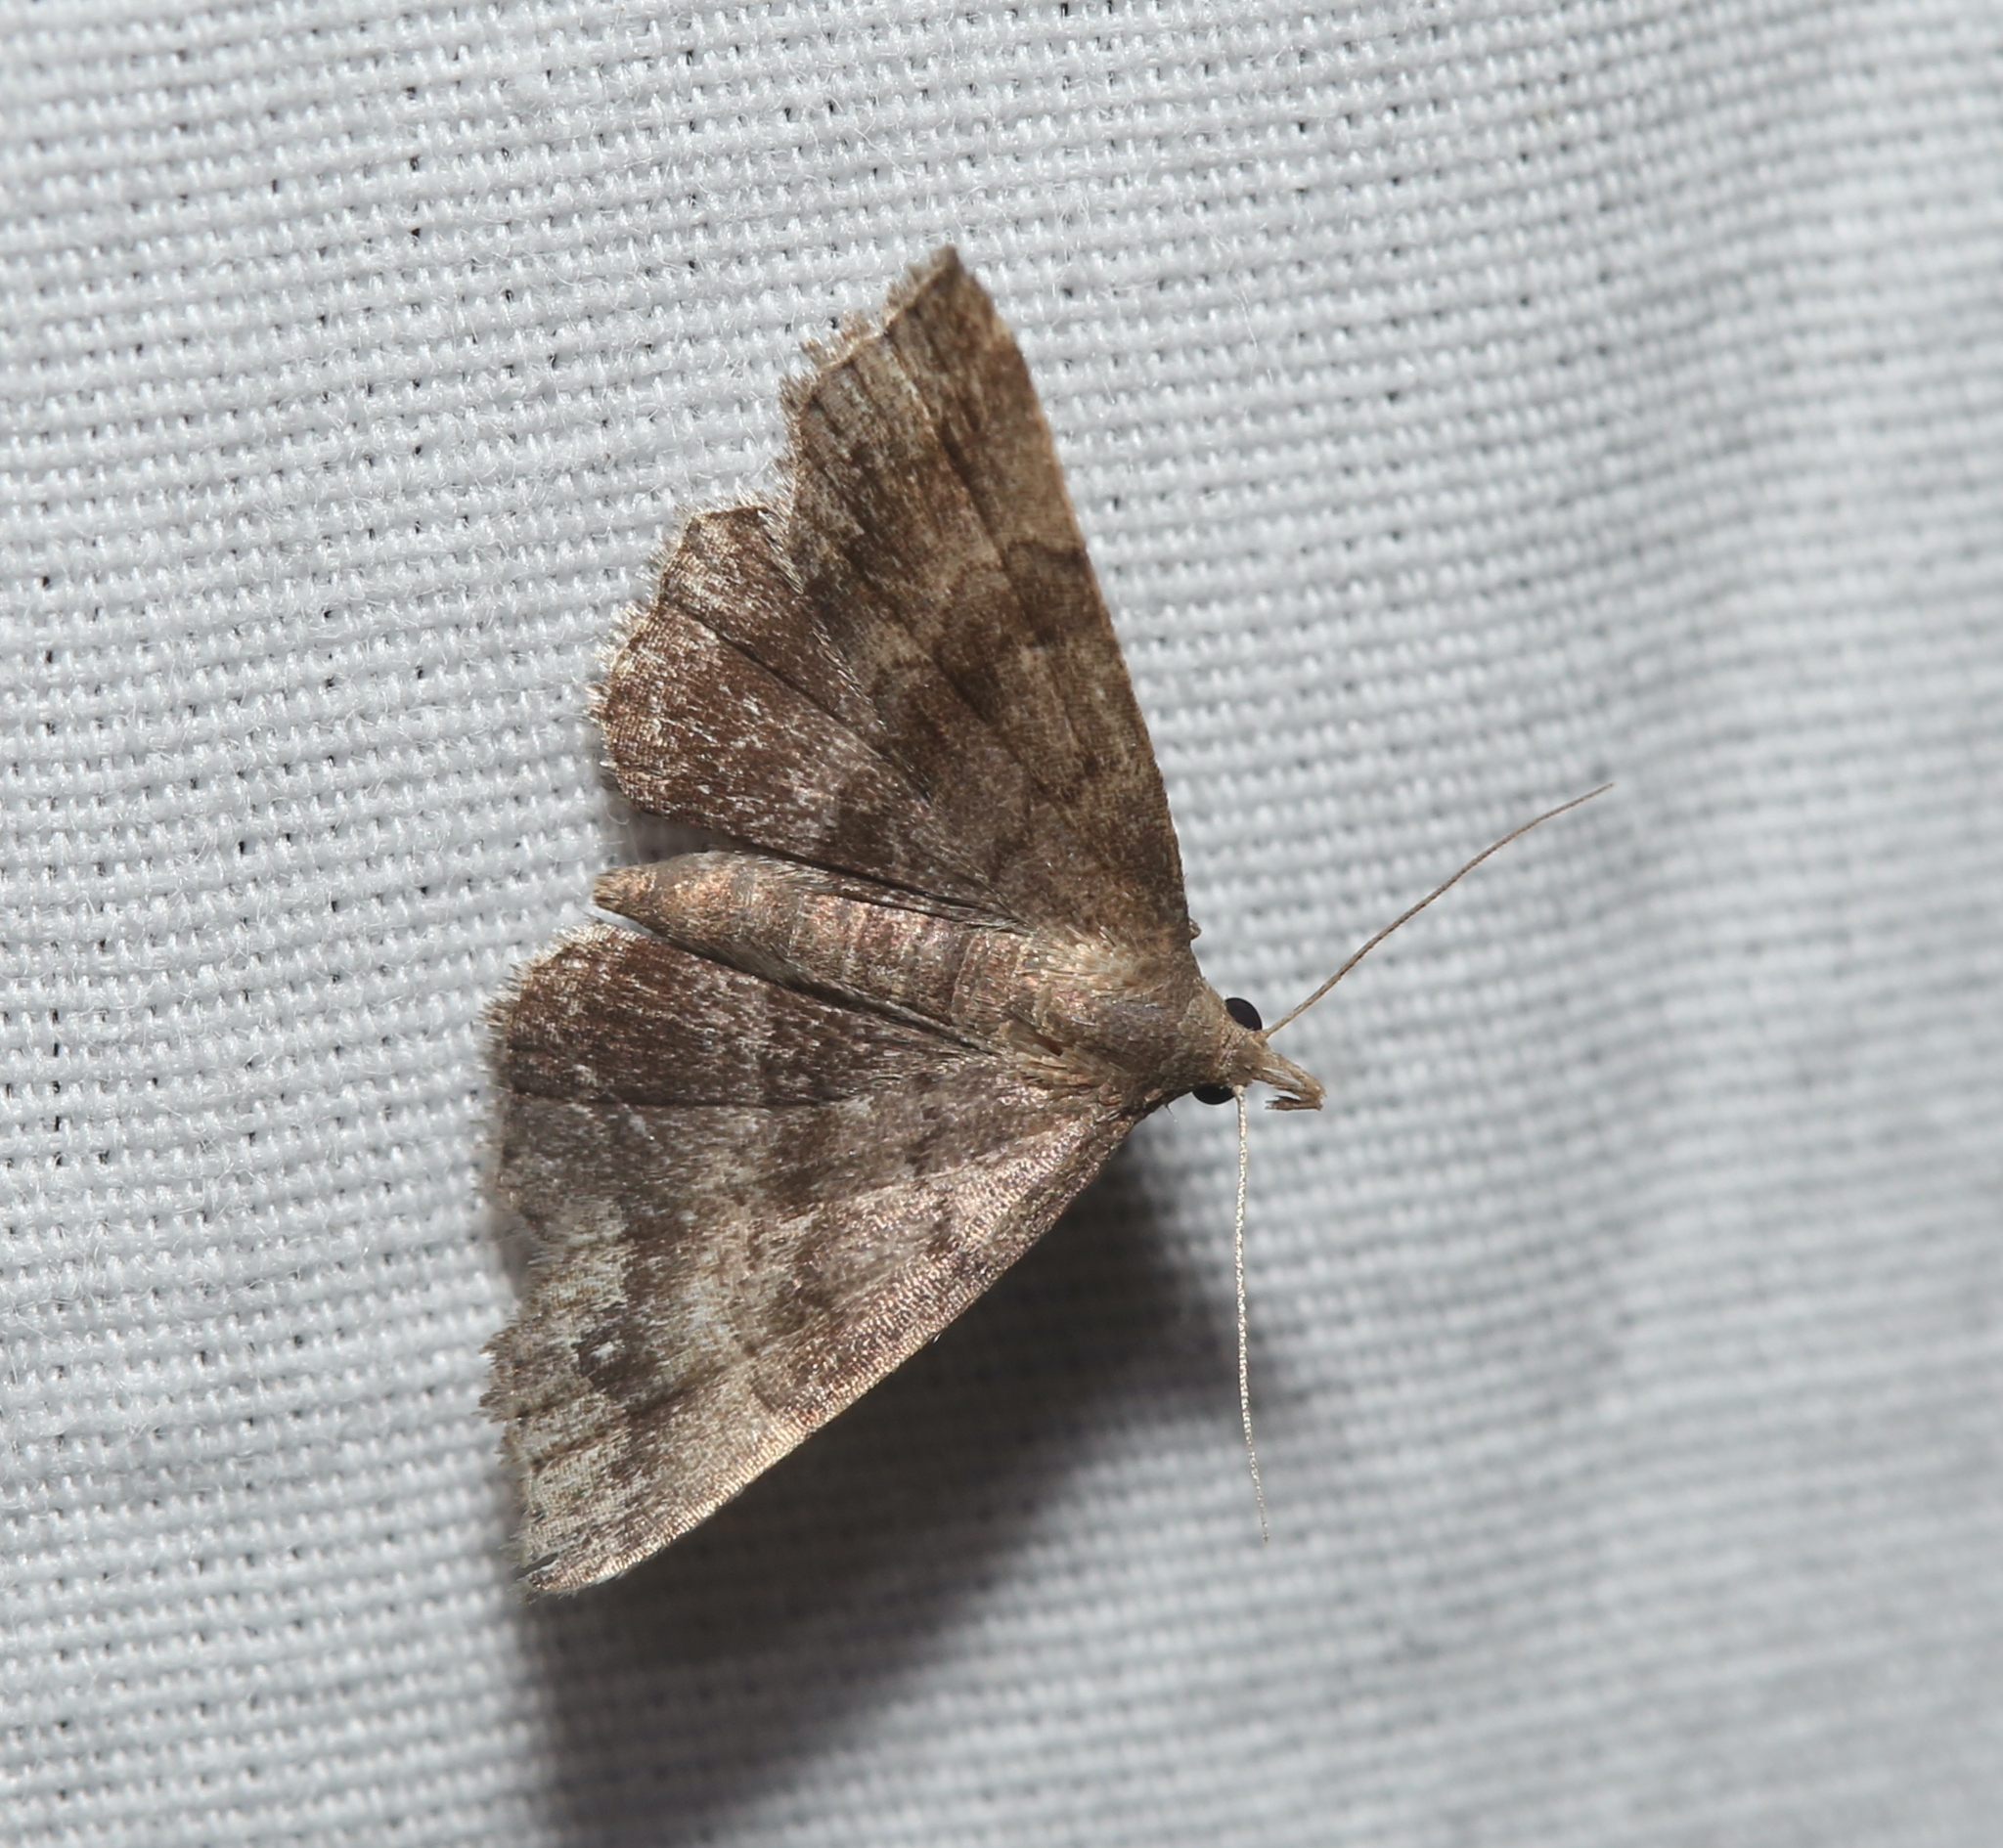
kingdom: Animalia
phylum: Arthropoda
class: Insecta
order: Lepidoptera
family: Erebidae
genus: Phalaenostola
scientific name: Phalaenostola larentioides
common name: Black-banded owlet
